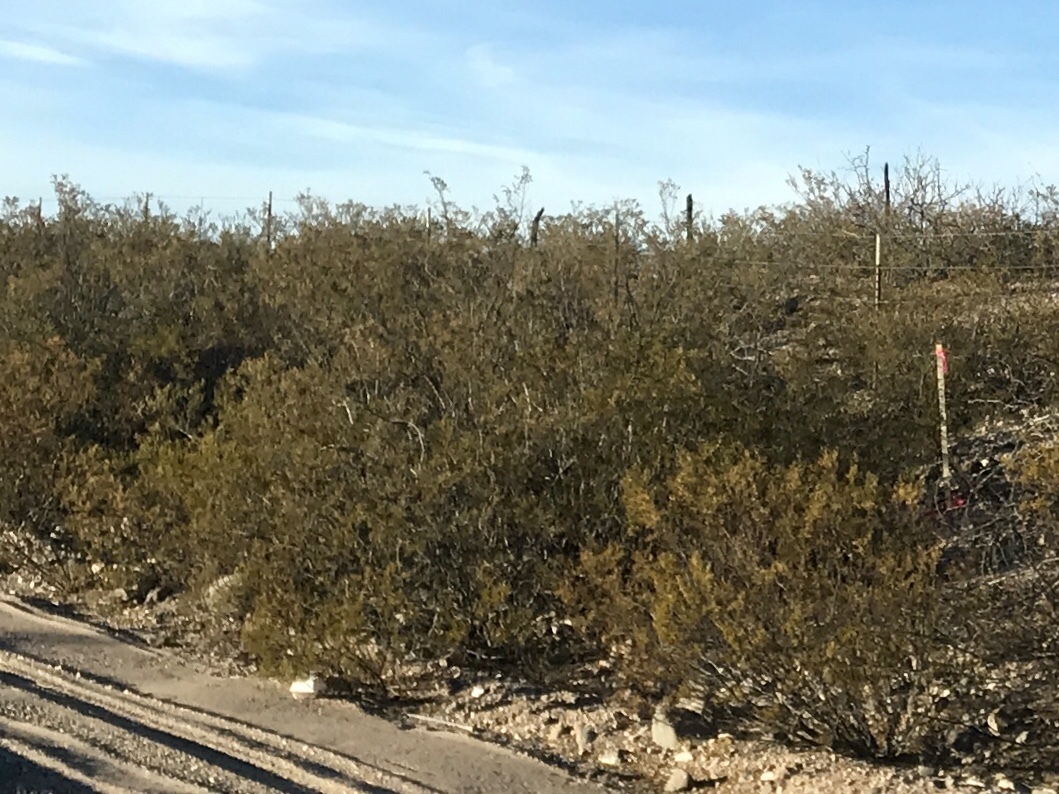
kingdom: Plantae
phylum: Tracheophyta
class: Magnoliopsida
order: Zygophyllales
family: Zygophyllaceae
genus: Larrea
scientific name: Larrea tridentata
